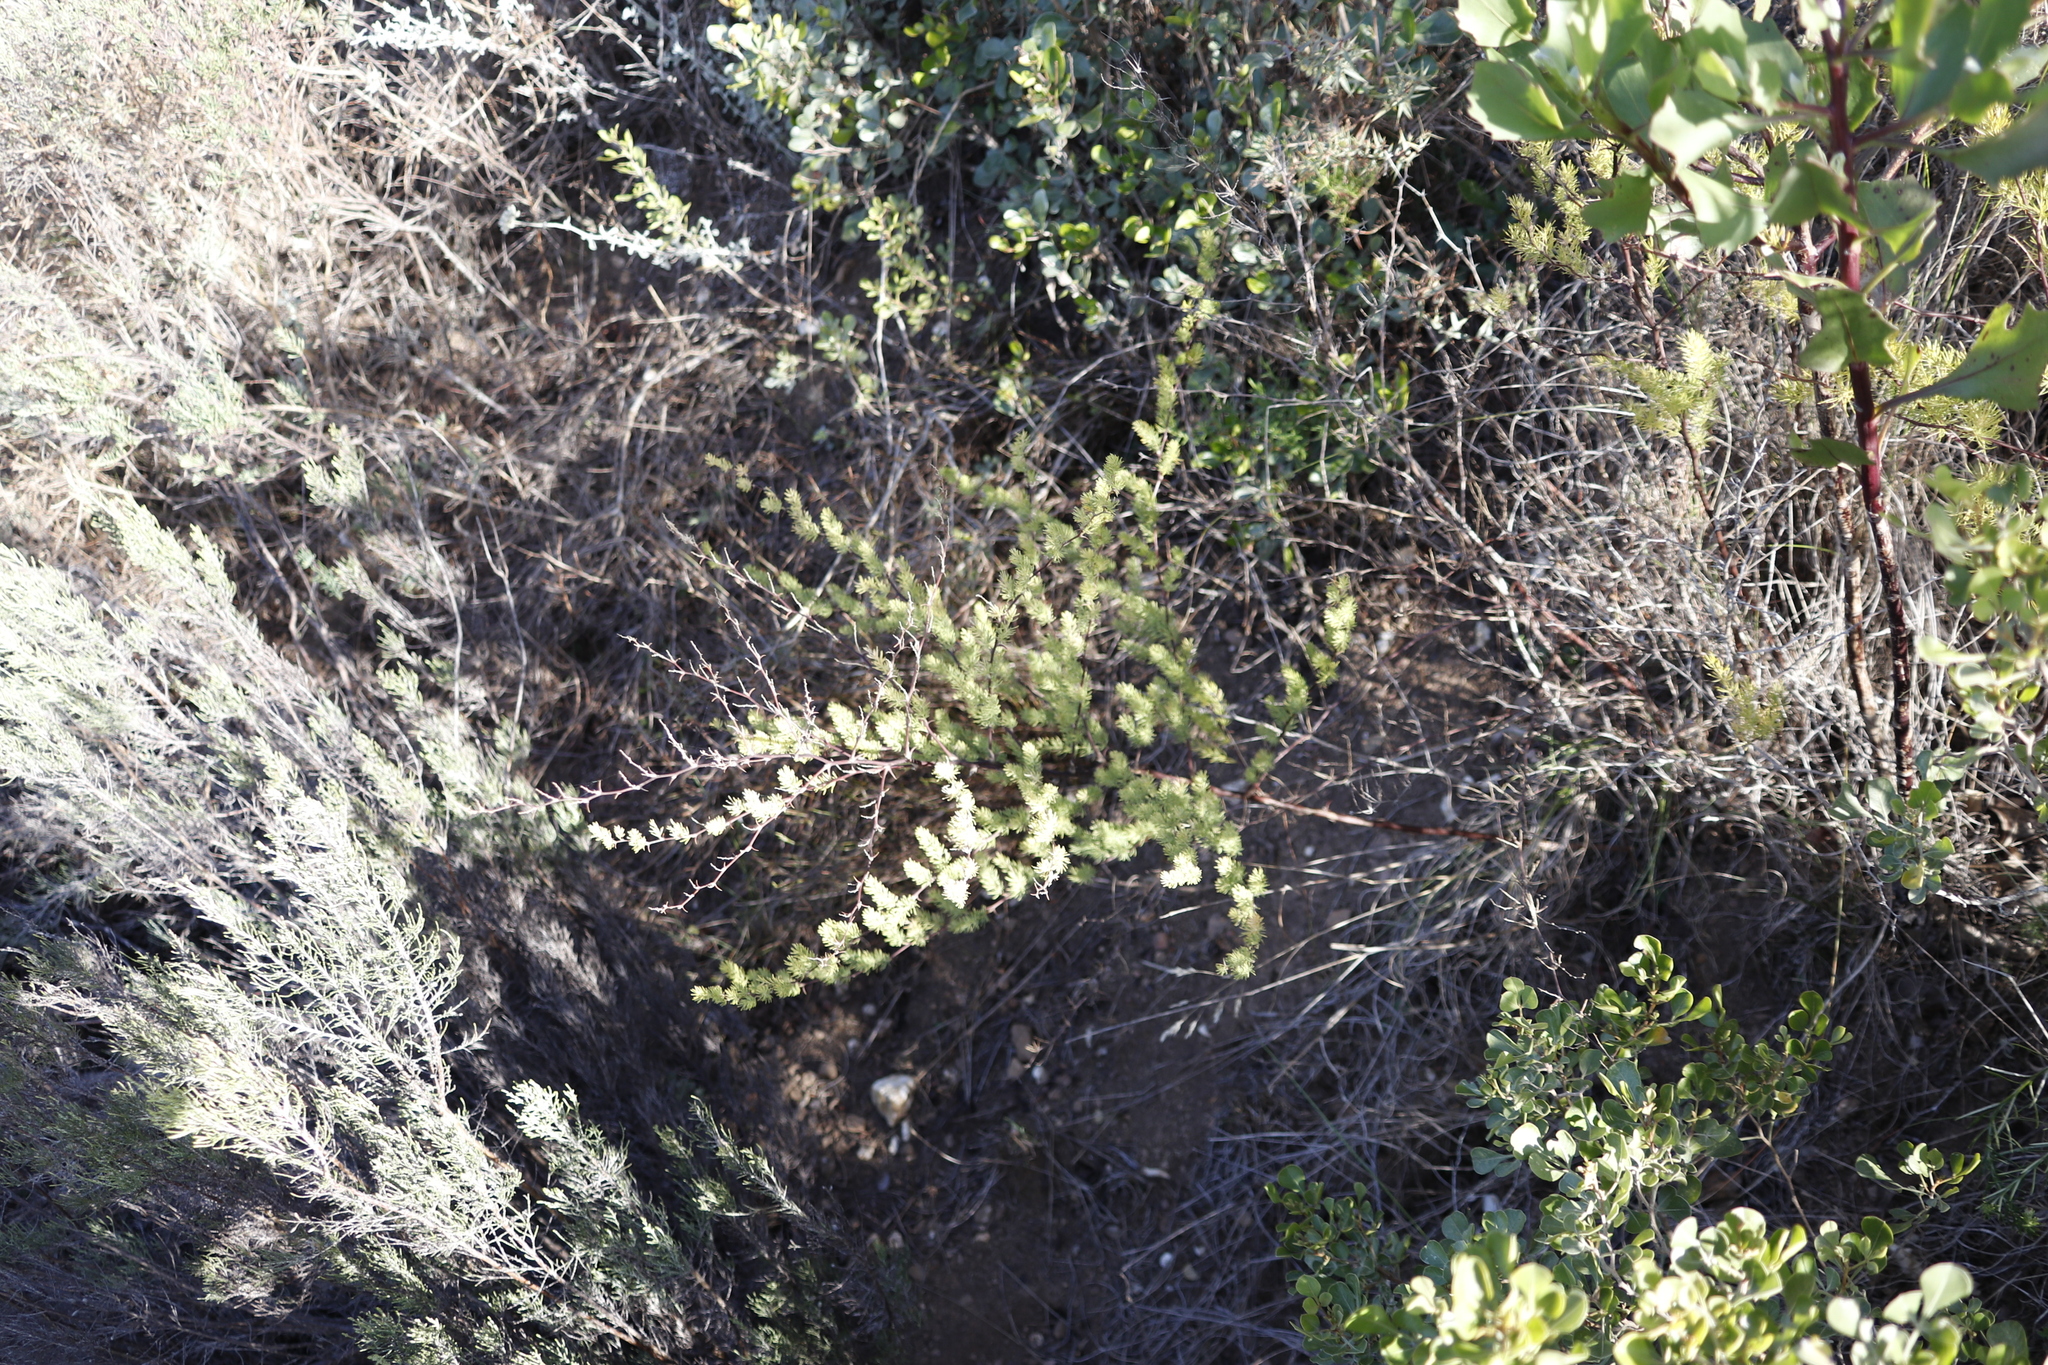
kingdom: Plantae
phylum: Tracheophyta
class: Liliopsida
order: Asparagales
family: Asparagaceae
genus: Asparagus
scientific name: Asparagus rubicundus
